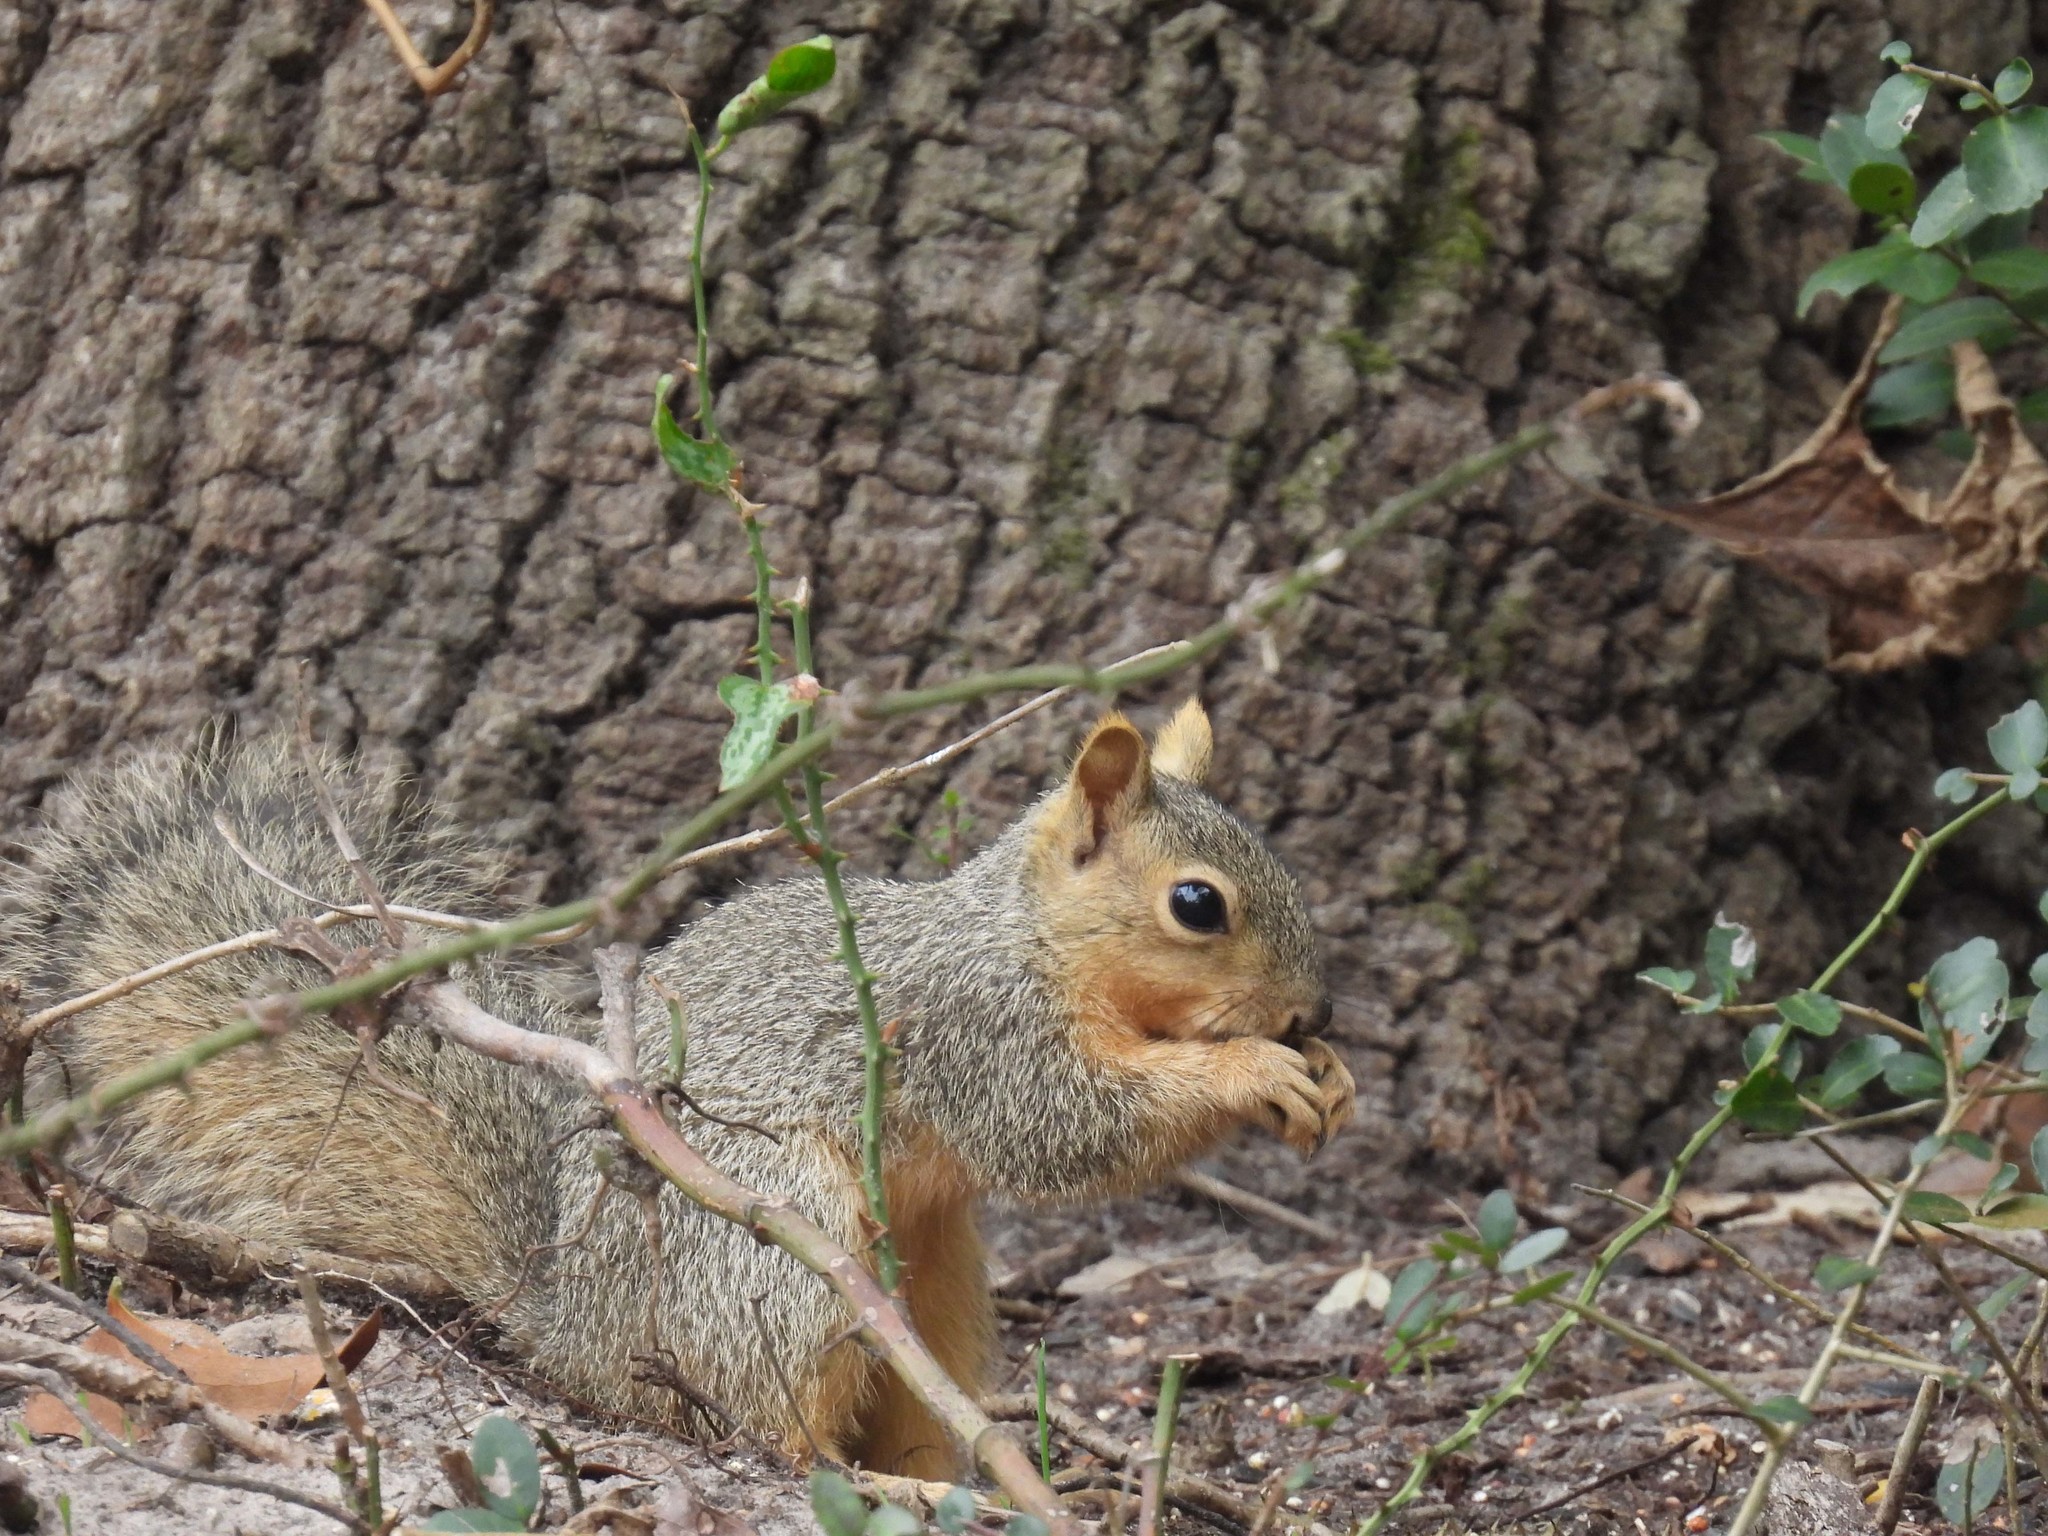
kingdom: Animalia
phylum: Chordata
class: Mammalia
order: Rodentia
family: Sciuridae
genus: Sciurus
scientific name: Sciurus niger
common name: Fox squirrel
